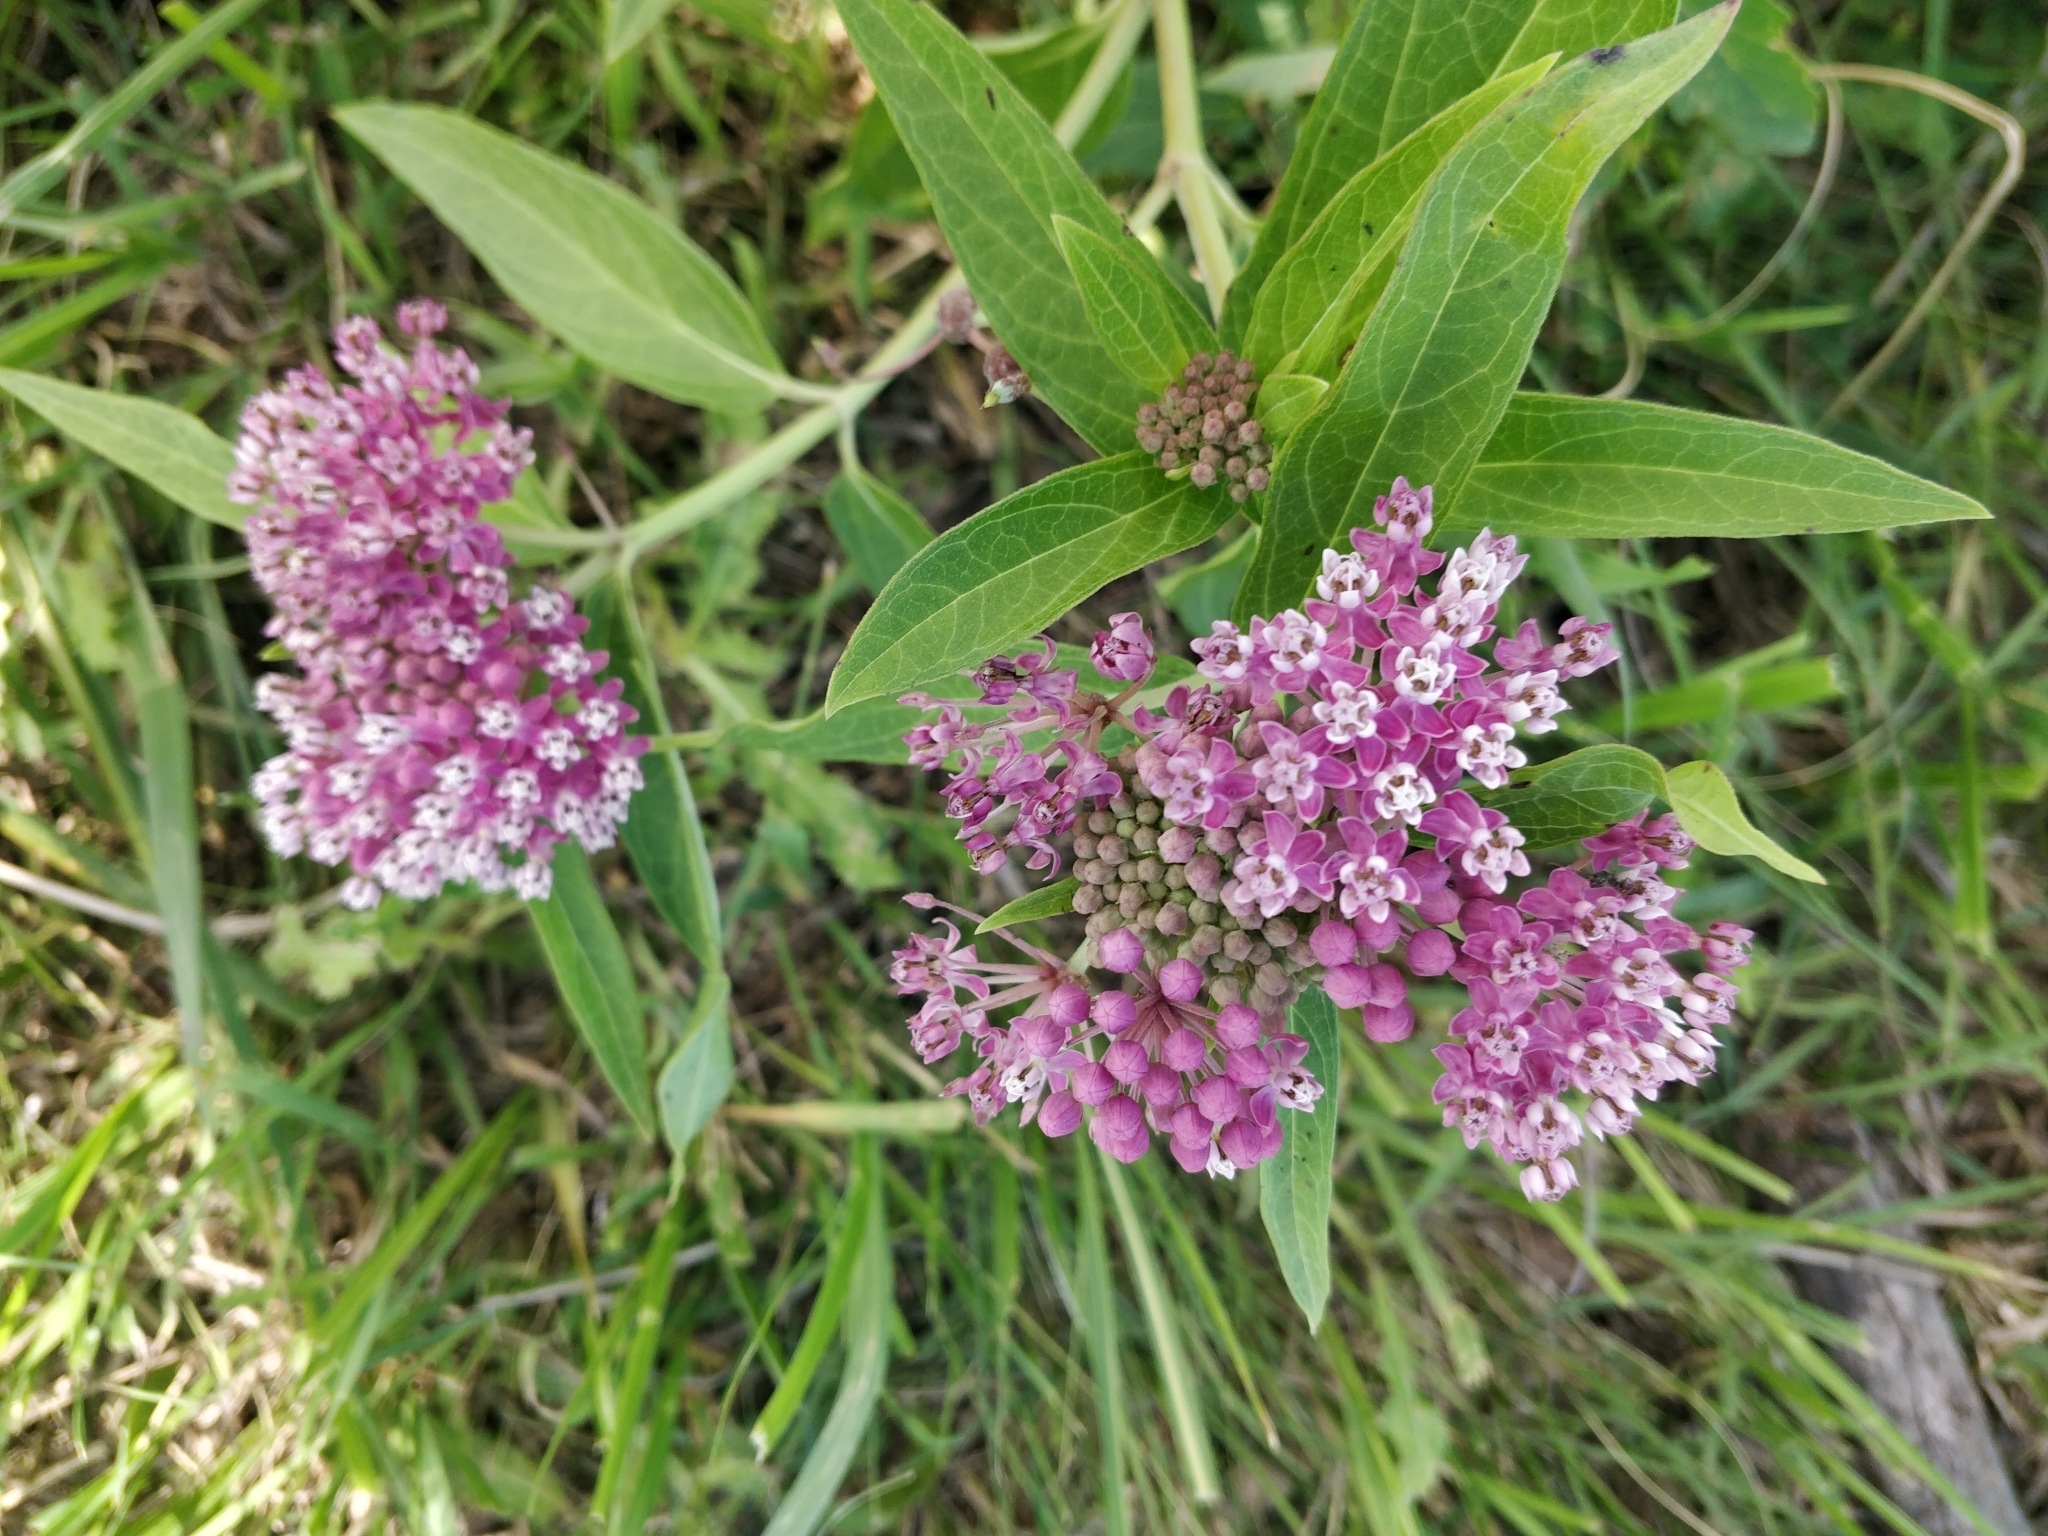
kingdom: Plantae
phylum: Tracheophyta
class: Magnoliopsida
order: Gentianales
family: Apocynaceae
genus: Asclepias
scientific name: Asclepias incarnata
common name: Swamp milkweed
